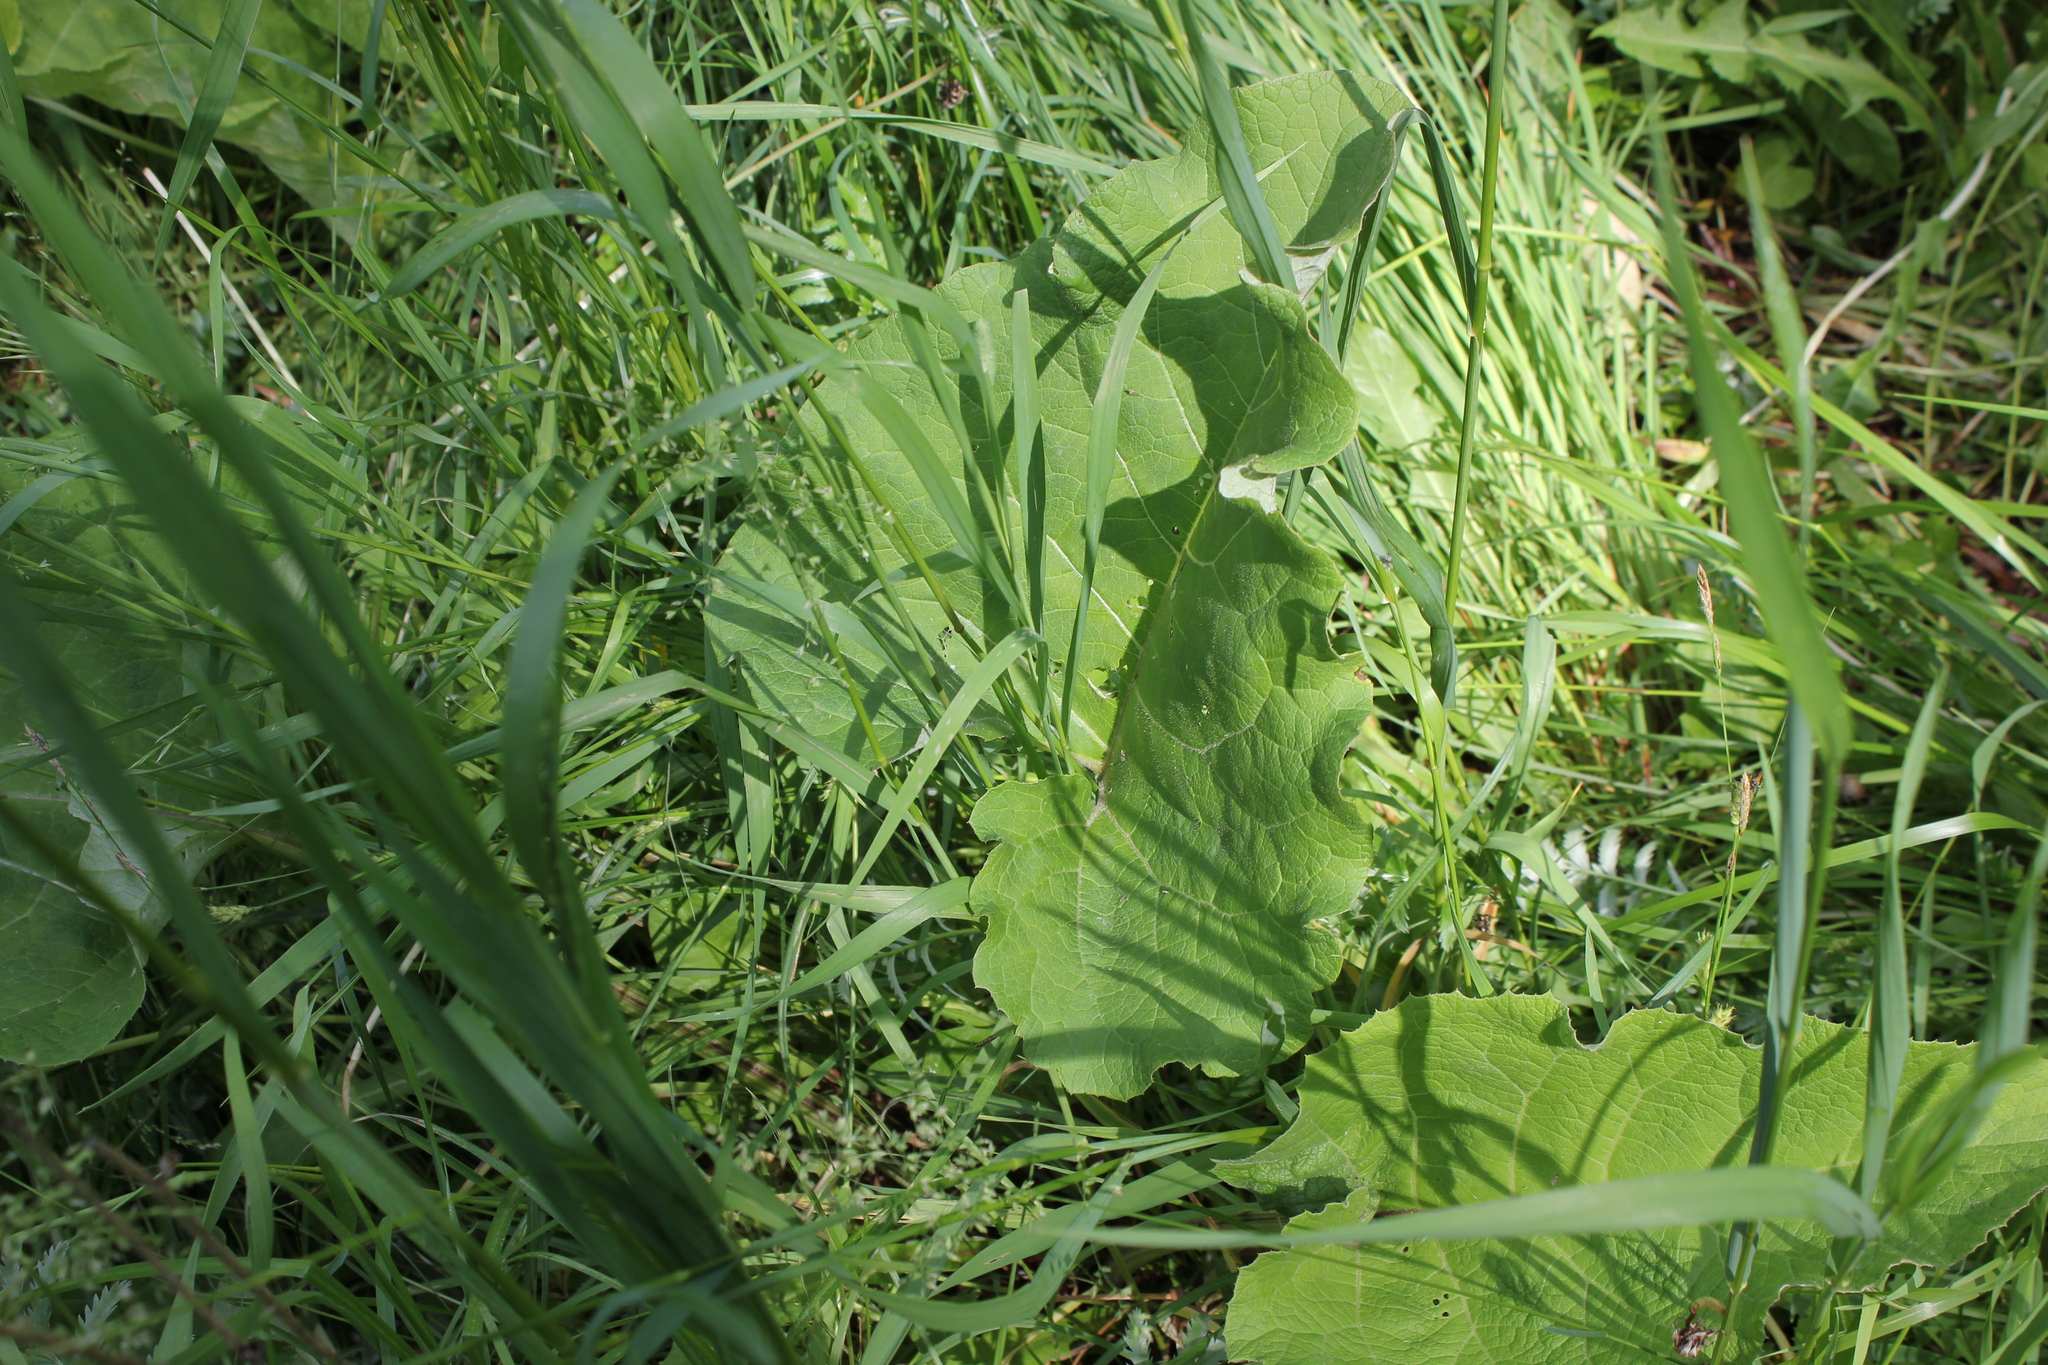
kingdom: Plantae
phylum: Tracheophyta
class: Magnoliopsida
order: Asterales
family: Asteraceae
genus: Arctium
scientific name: Arctium
